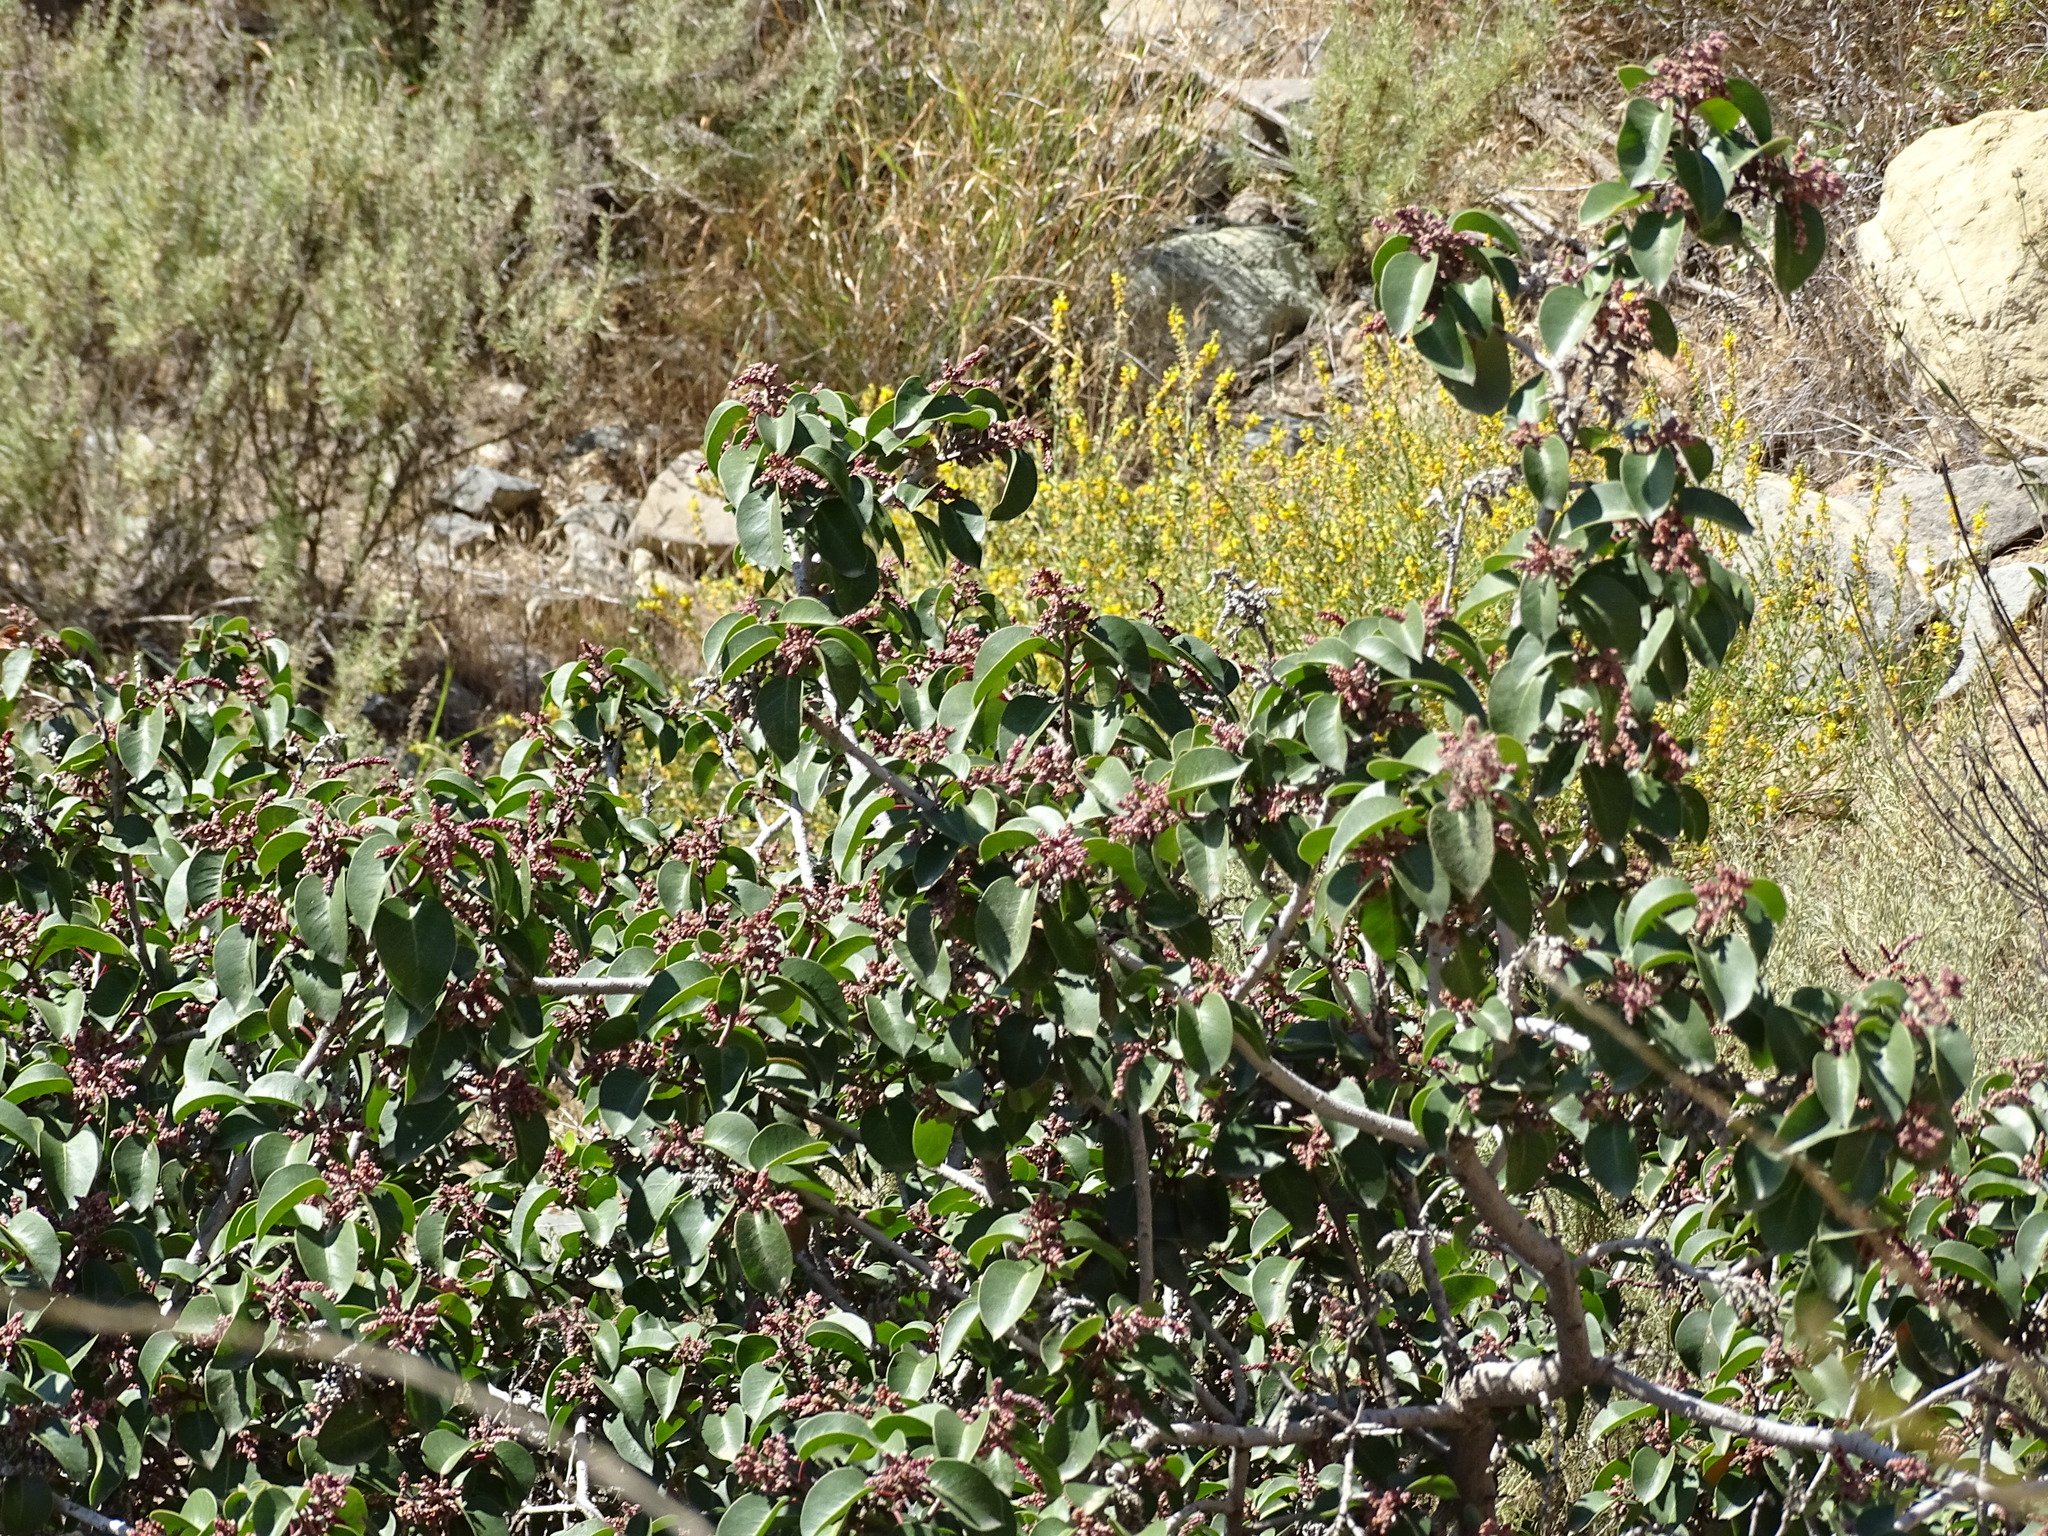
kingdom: Plantae
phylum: Tracheophyta
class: Magnoliopsida
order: Sapindales
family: Anacardiaceae
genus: Rhus
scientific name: Rhus ovata
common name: Sugar sumac
